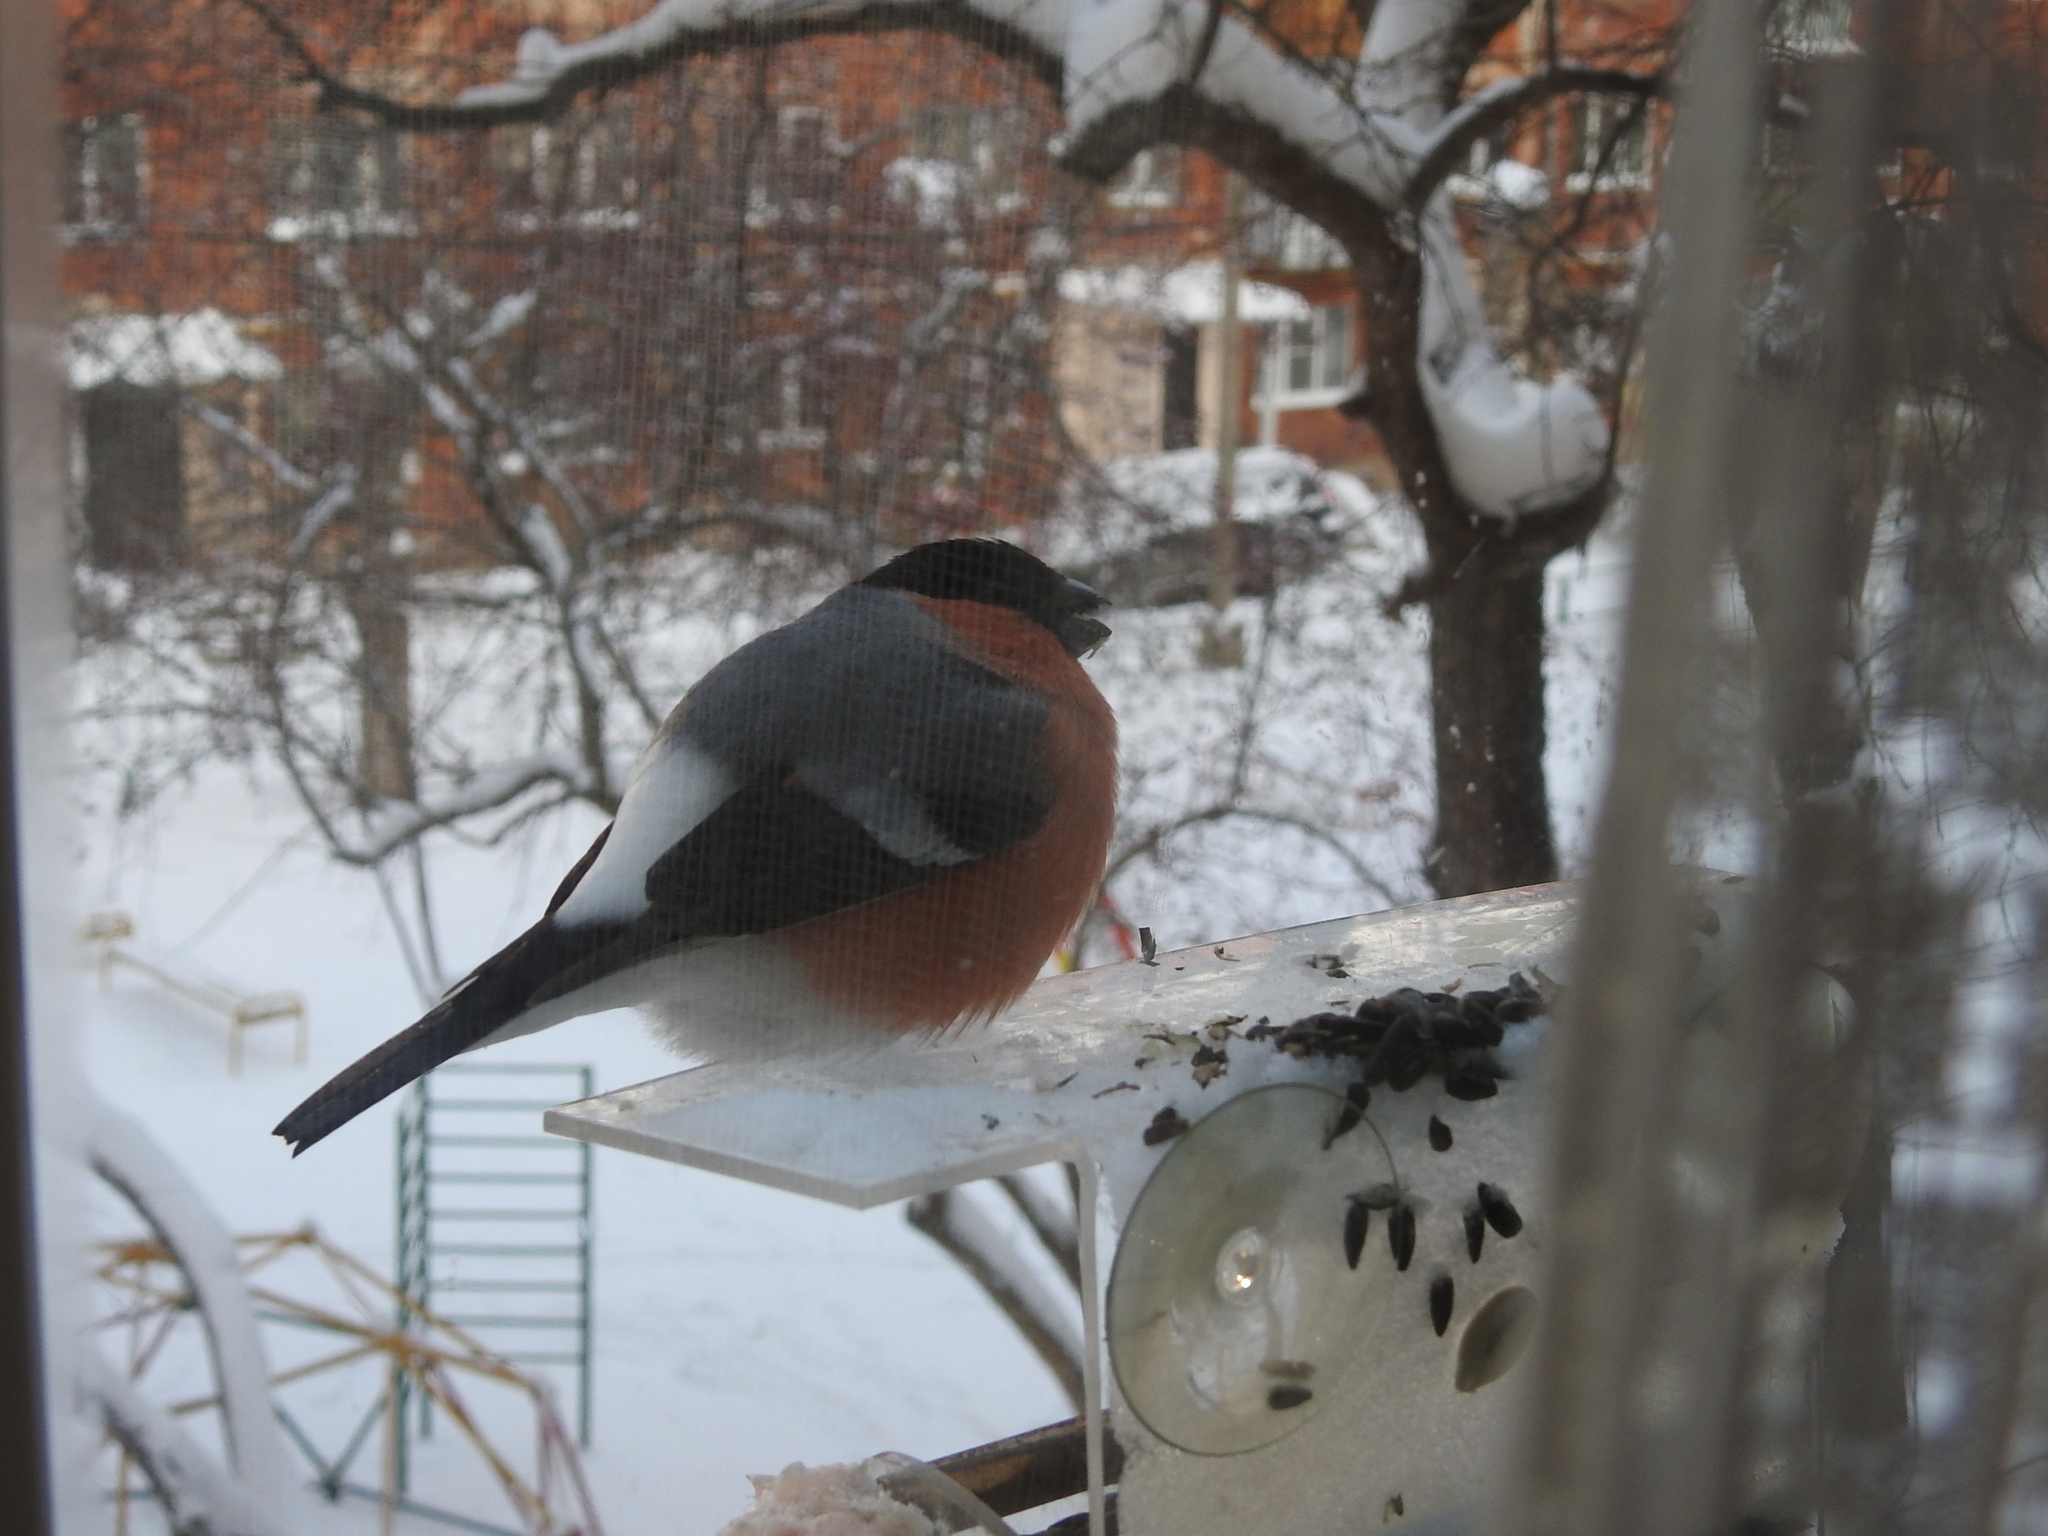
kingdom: Animalia
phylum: Chordata
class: Aves
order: Passeriformes
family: Fringillidae
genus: Pyrrhula
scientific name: Pyrrhula pyrrhula
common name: Eurasian bullfinch
